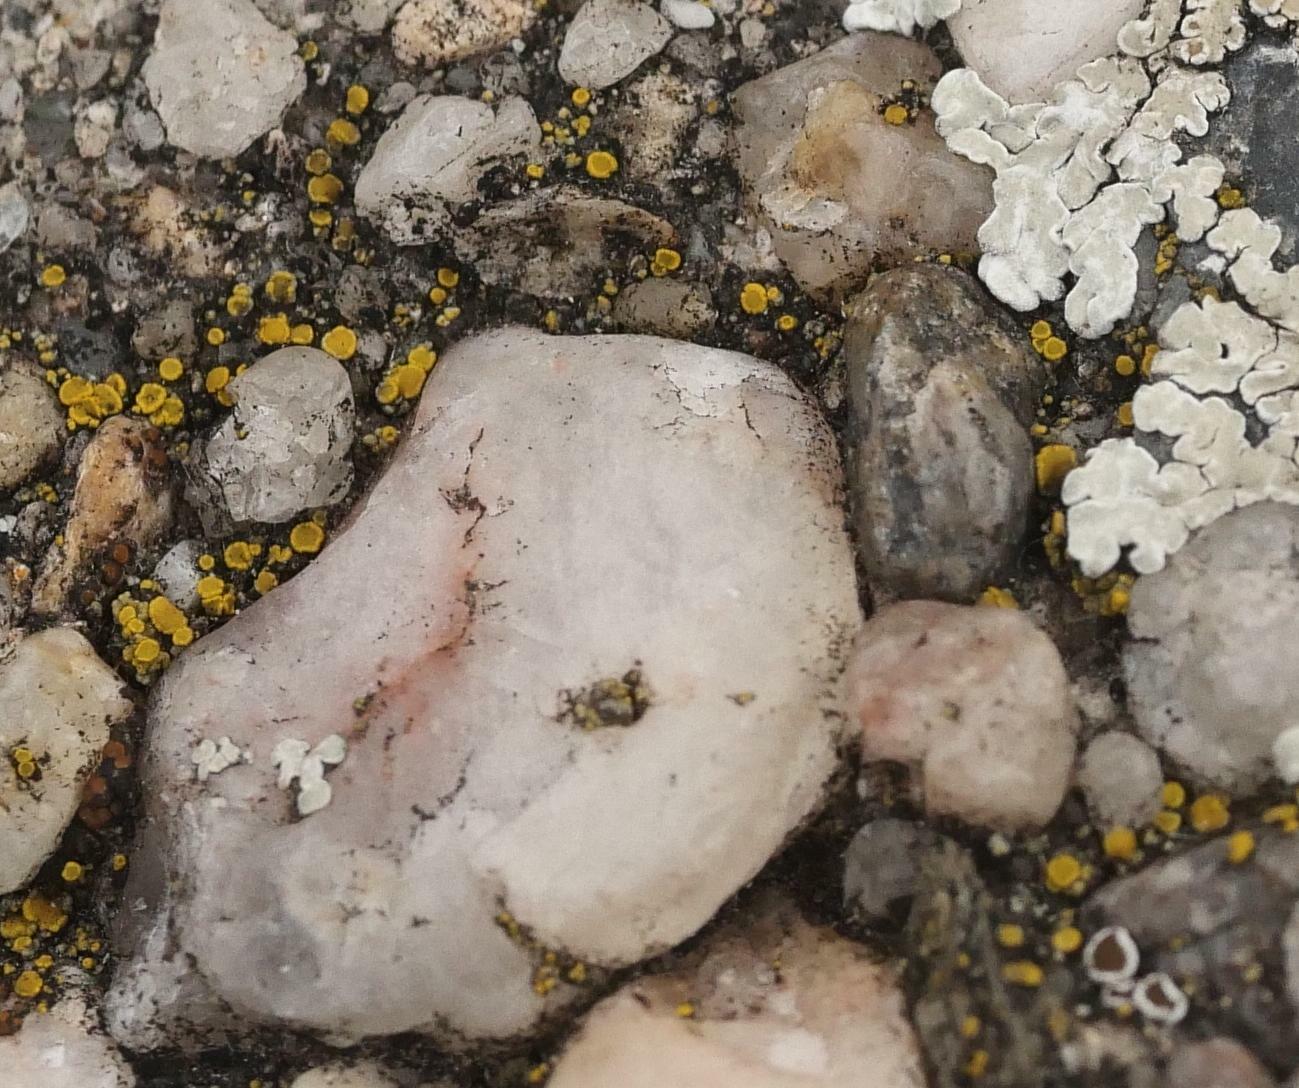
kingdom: Fungi
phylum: Ascomycota
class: Candelariomycetes
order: Candelariales
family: Candelariaceae
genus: Candelariella
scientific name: Candelariella aurella
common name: Hidden goldspeck lichen
